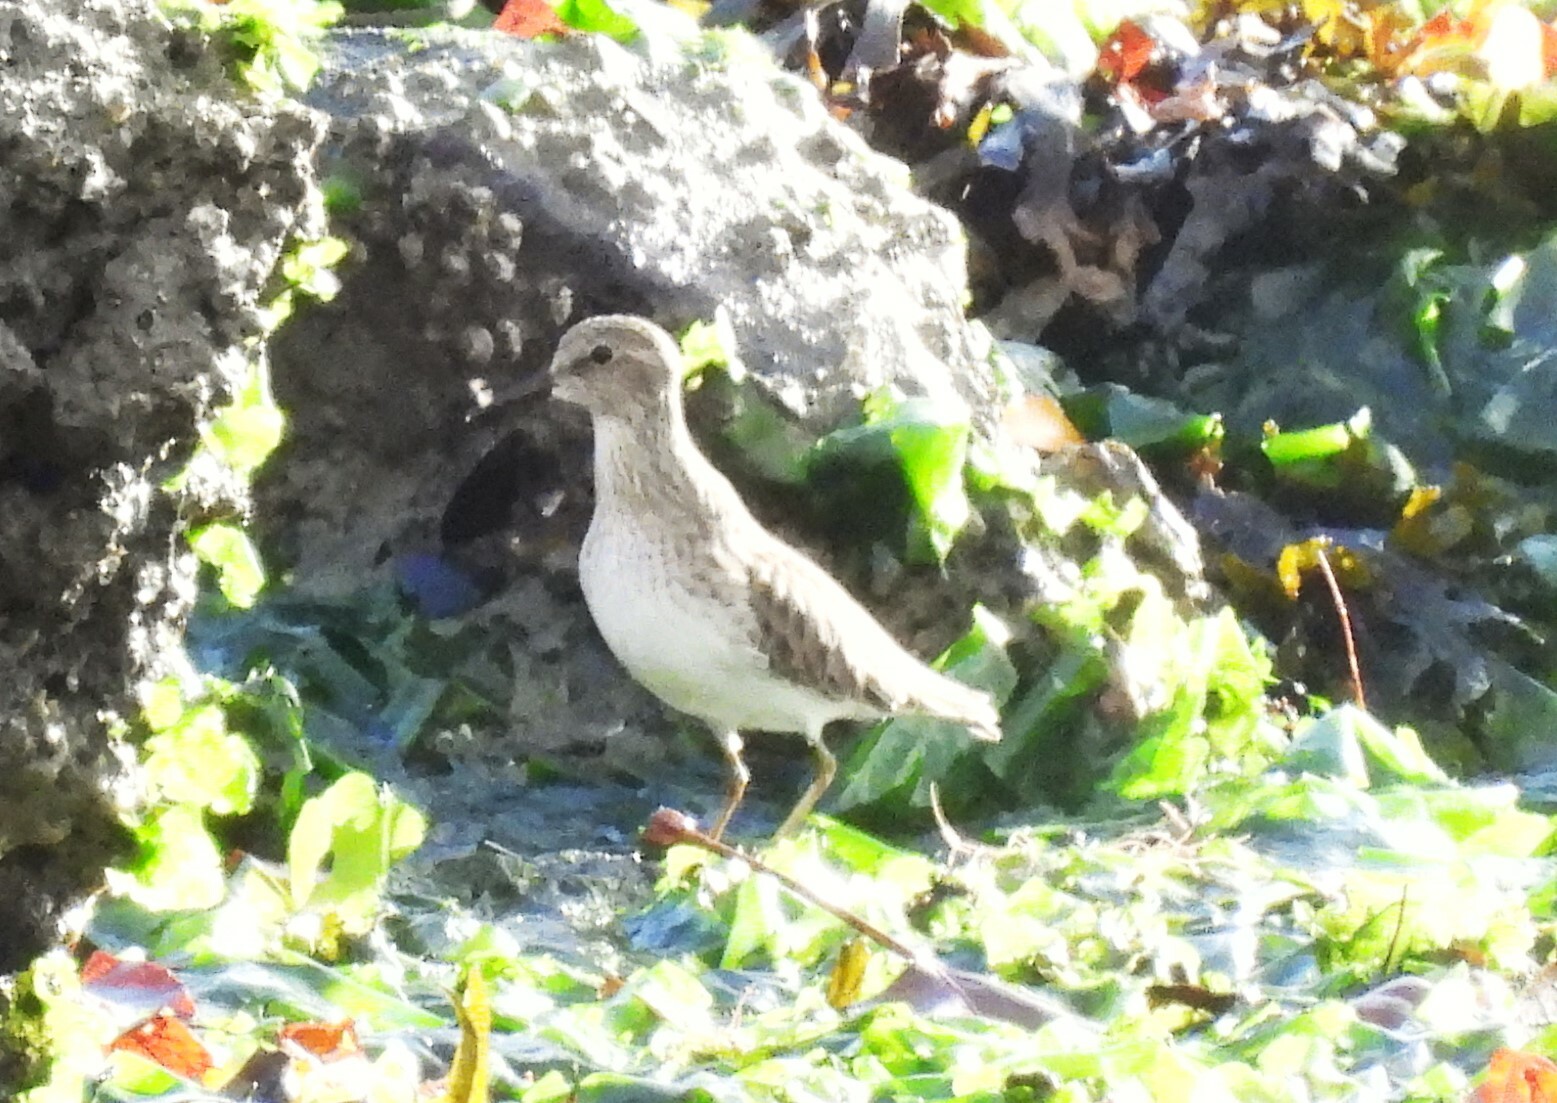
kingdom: Animalia
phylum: Chordata
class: Aves
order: Charadriiformes
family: Scolopacidae
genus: Calidris
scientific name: Calidris minutilla
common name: Least sandpiper
